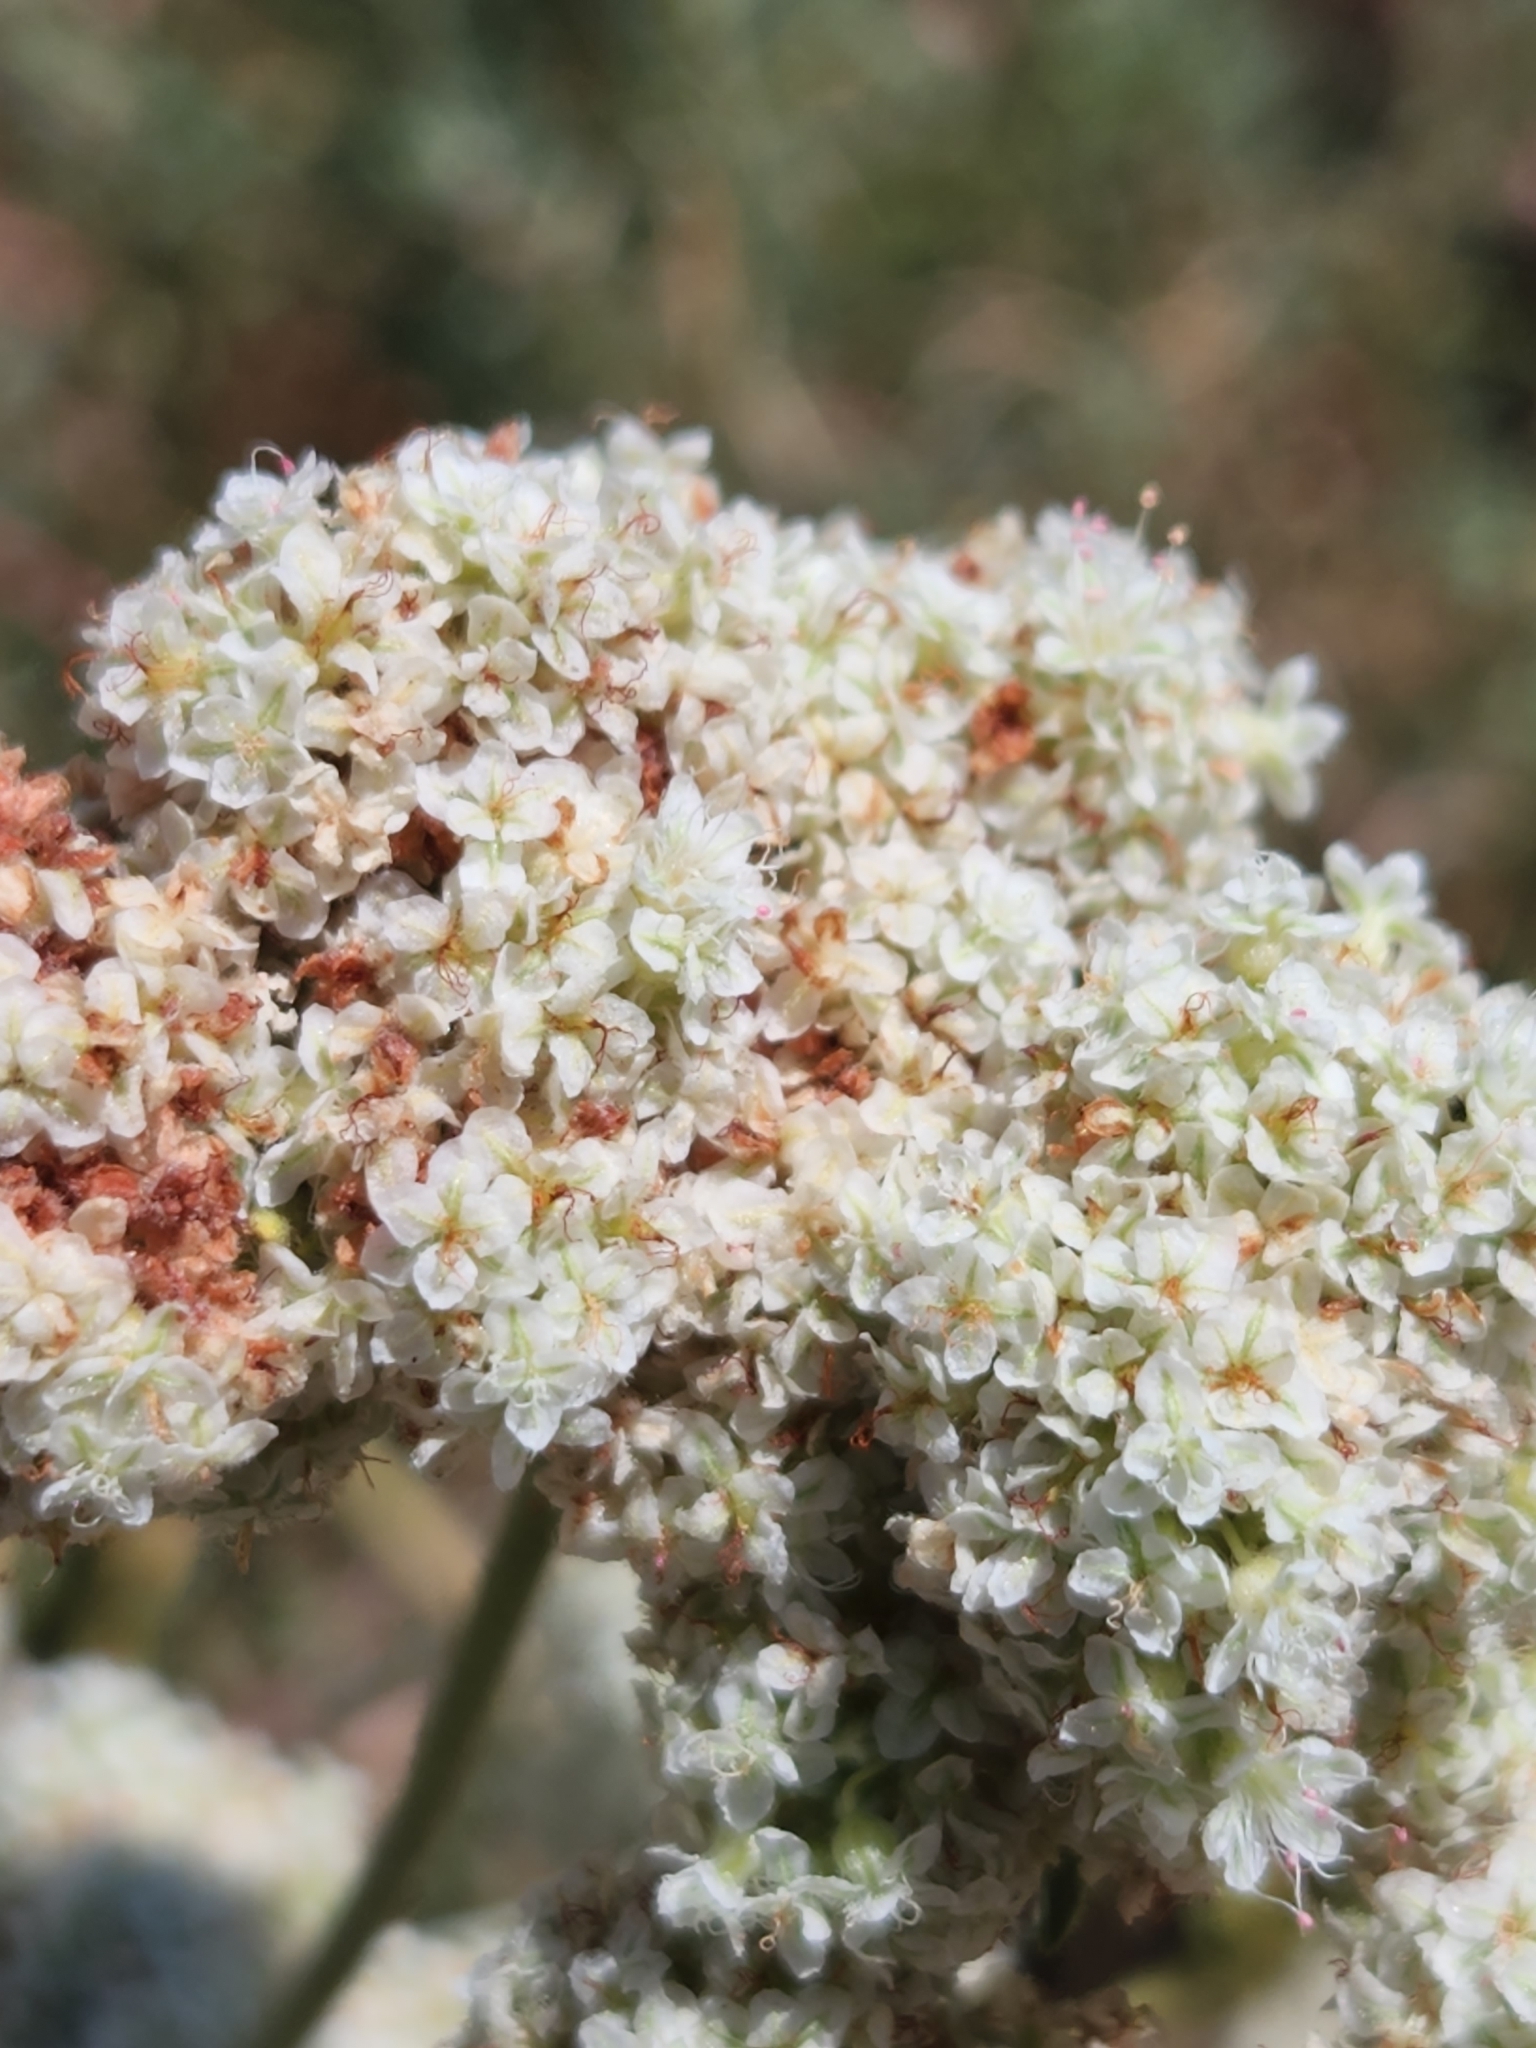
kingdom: Plantae
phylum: Tracheophyta
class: Magnoliopsida
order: Caryophyllales
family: Polygonaceae
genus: Eriogonum
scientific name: Eriogonum fasciculatum
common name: California wild buckwheat
